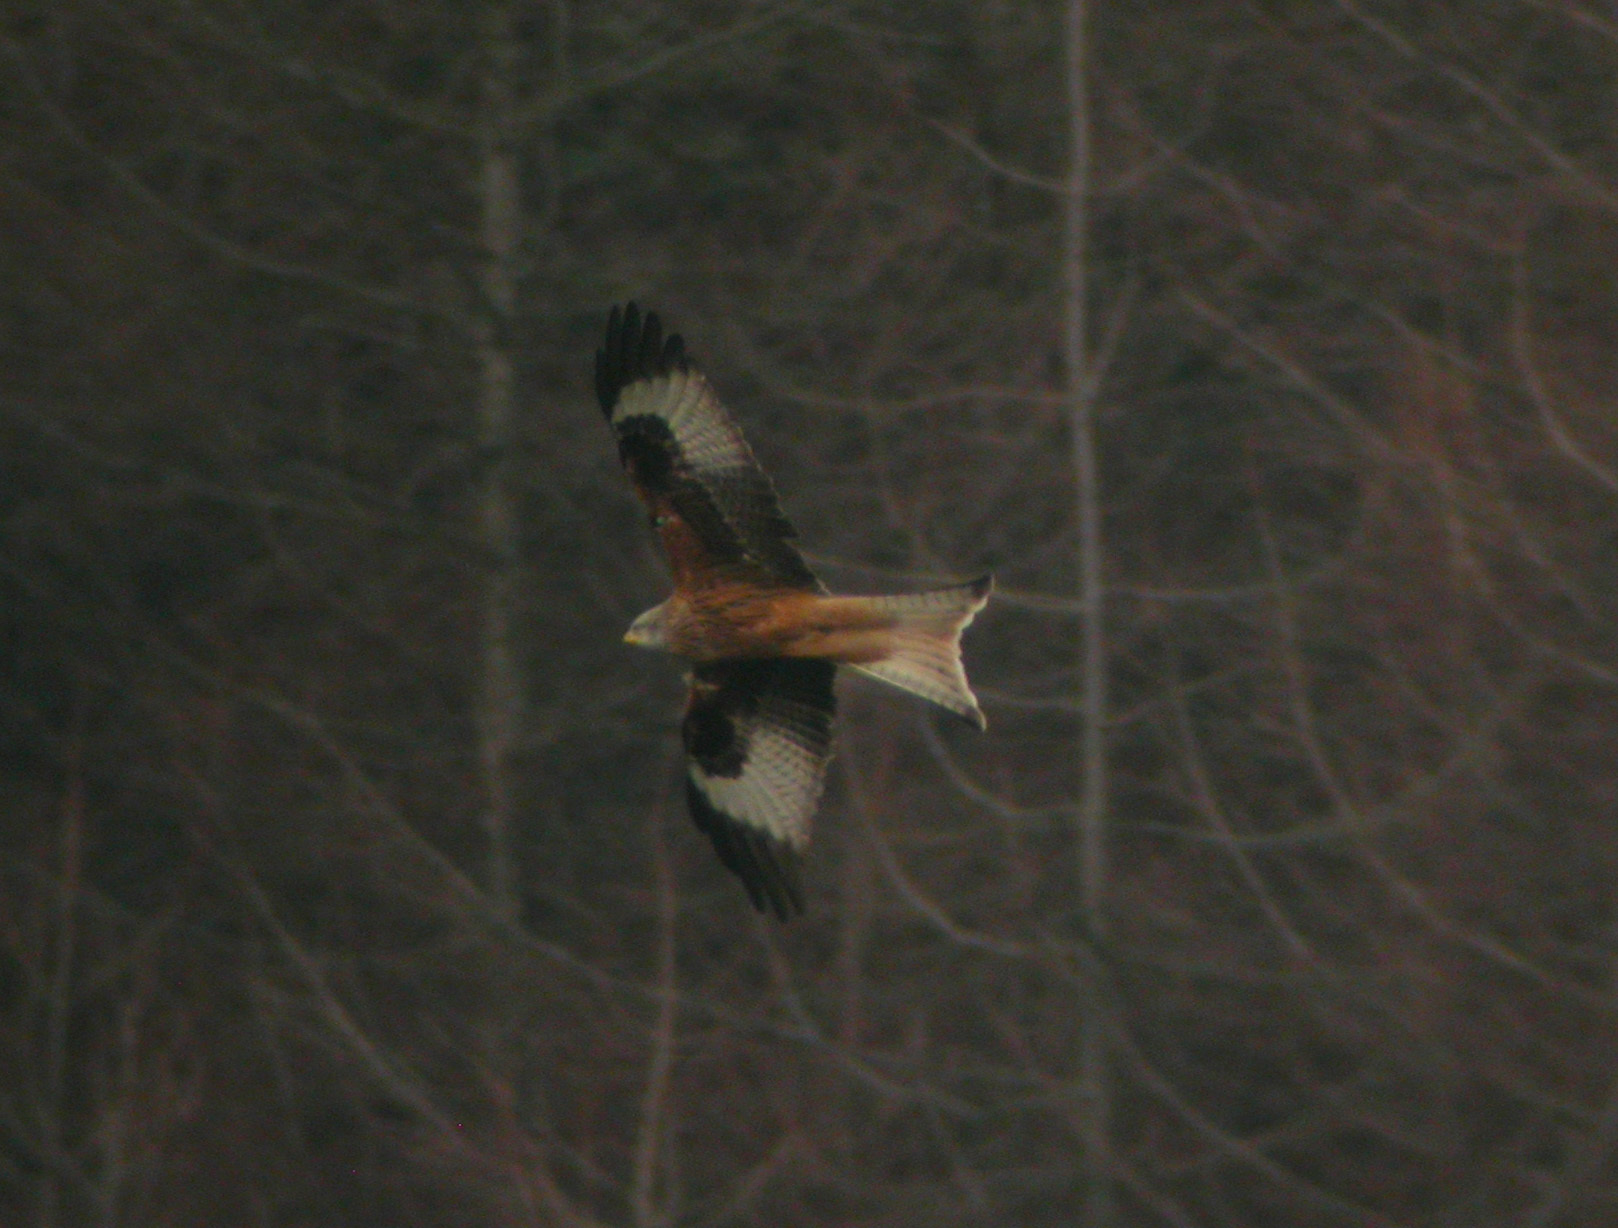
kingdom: Animalia
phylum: Chordata
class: Aves
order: Accipitriformes
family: Accipitridae
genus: Milvus
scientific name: Milvus milvus
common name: Red kite
